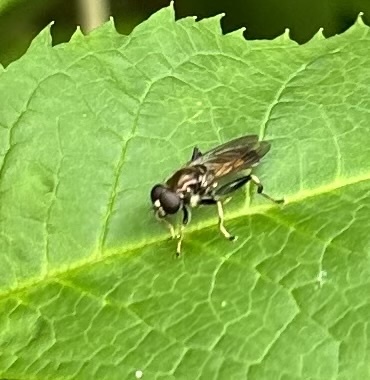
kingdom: Animalia
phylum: Arthropoda
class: Insecta
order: Diptera
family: Syrphidae
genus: Xylota
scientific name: Xylota segnis
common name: Brown-toed forest fly
